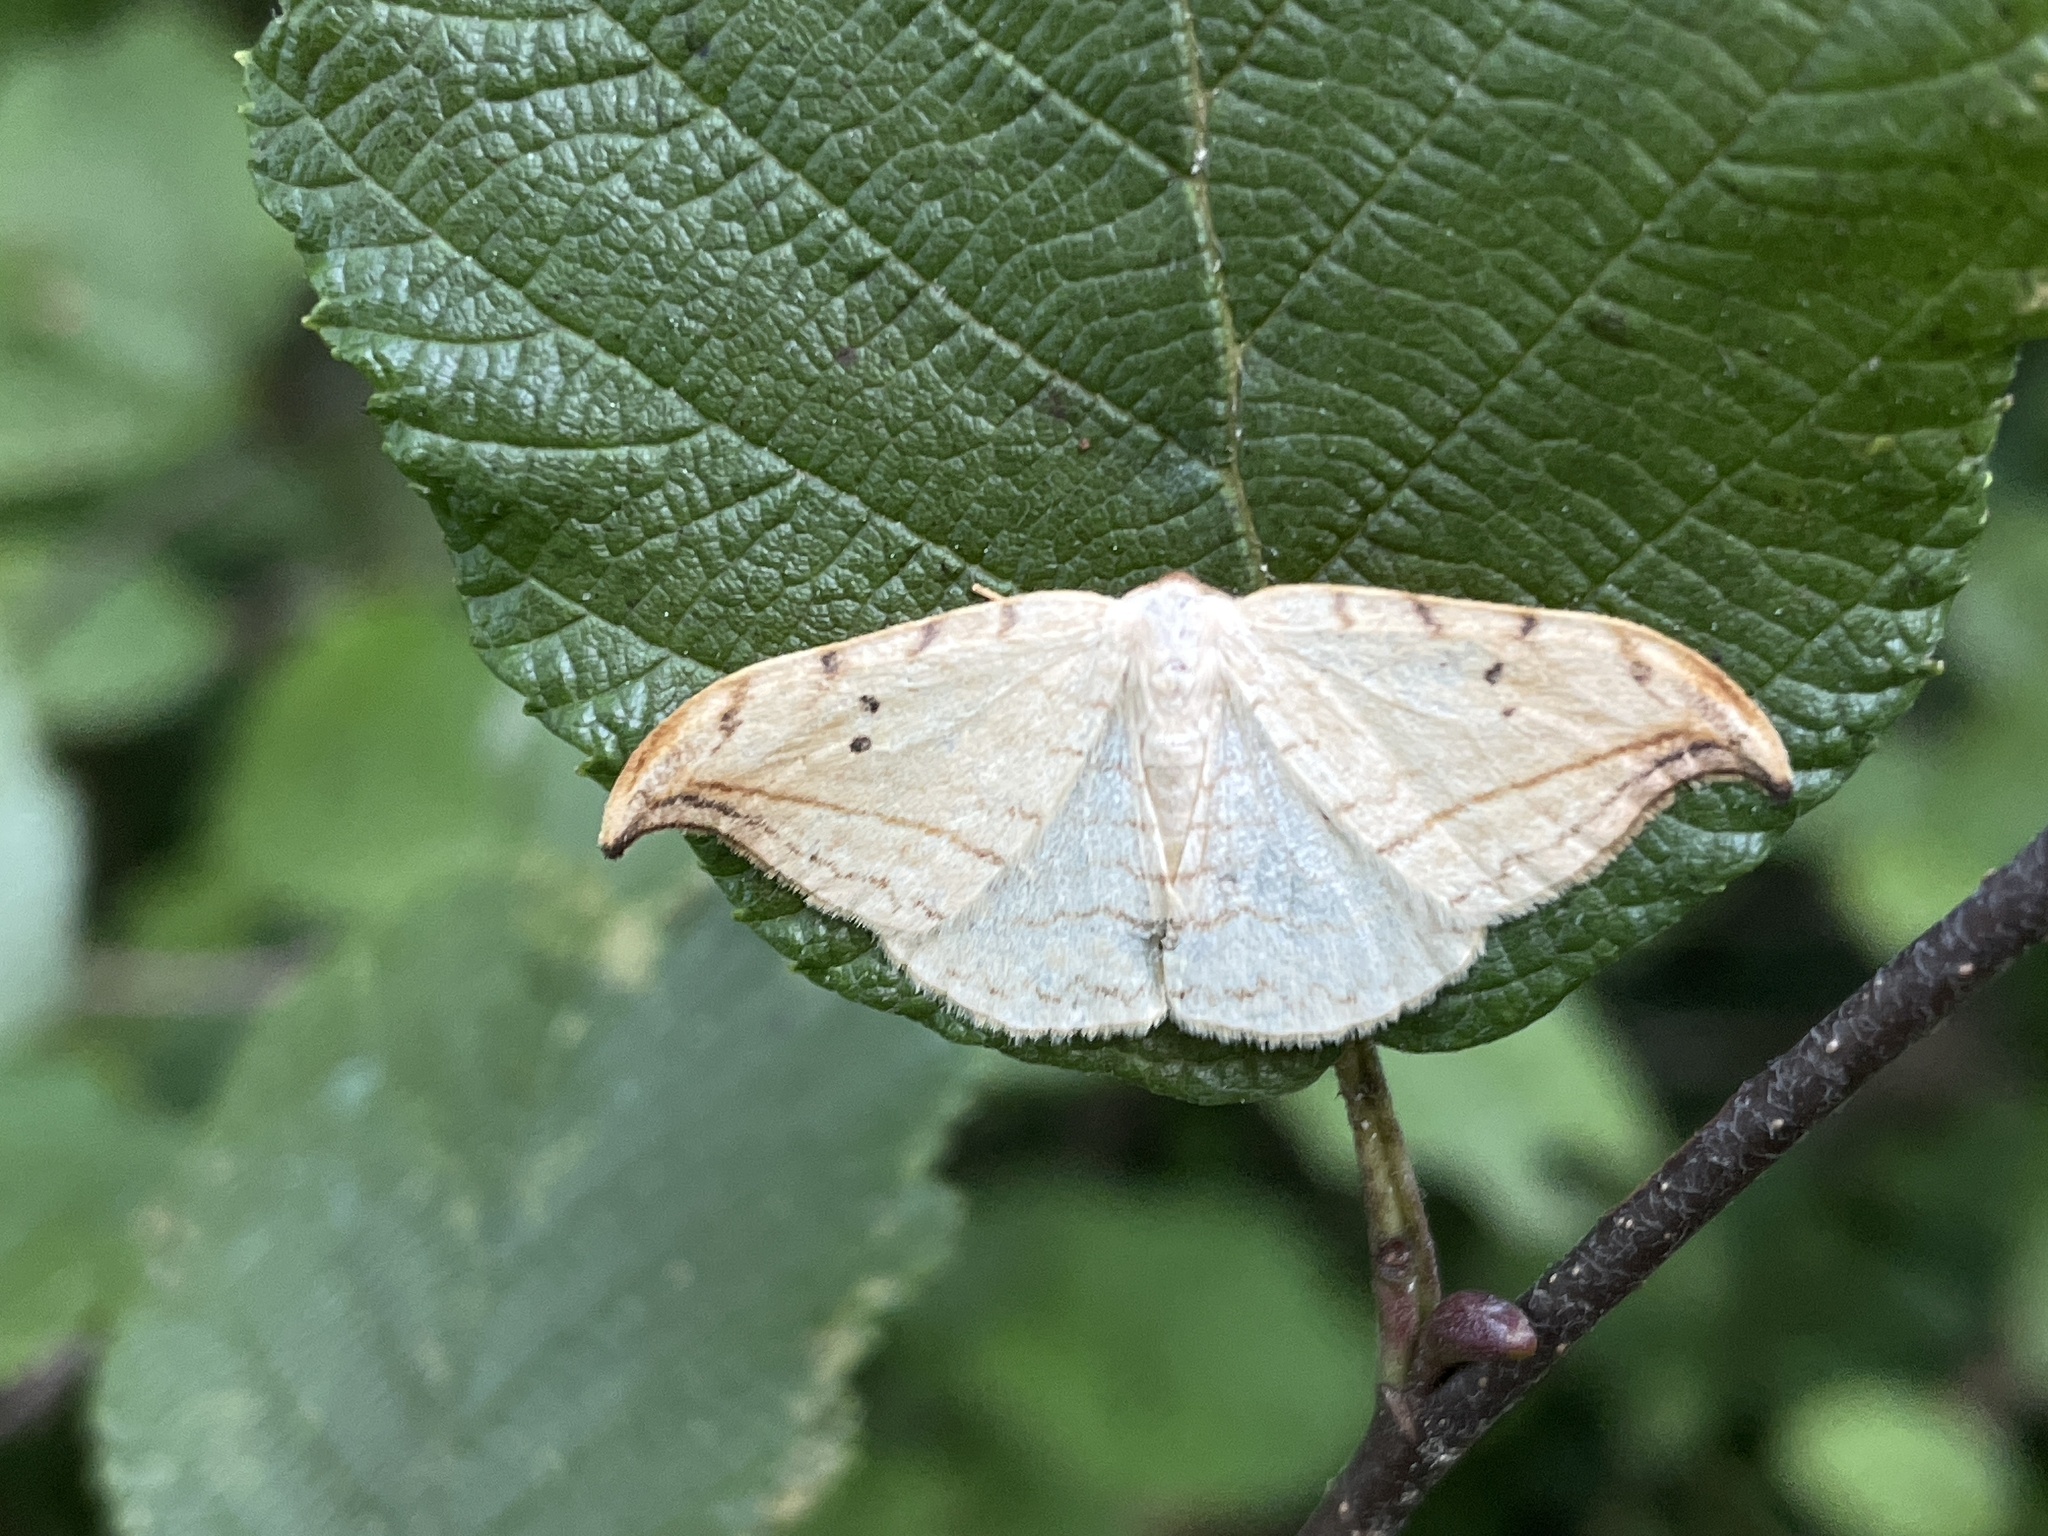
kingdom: Animalia
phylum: Arthropoda
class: Insecta
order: Lepidoptera
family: Drepanidae
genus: Drepana
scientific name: Drepana arcuata
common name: Arched hooktip moth
